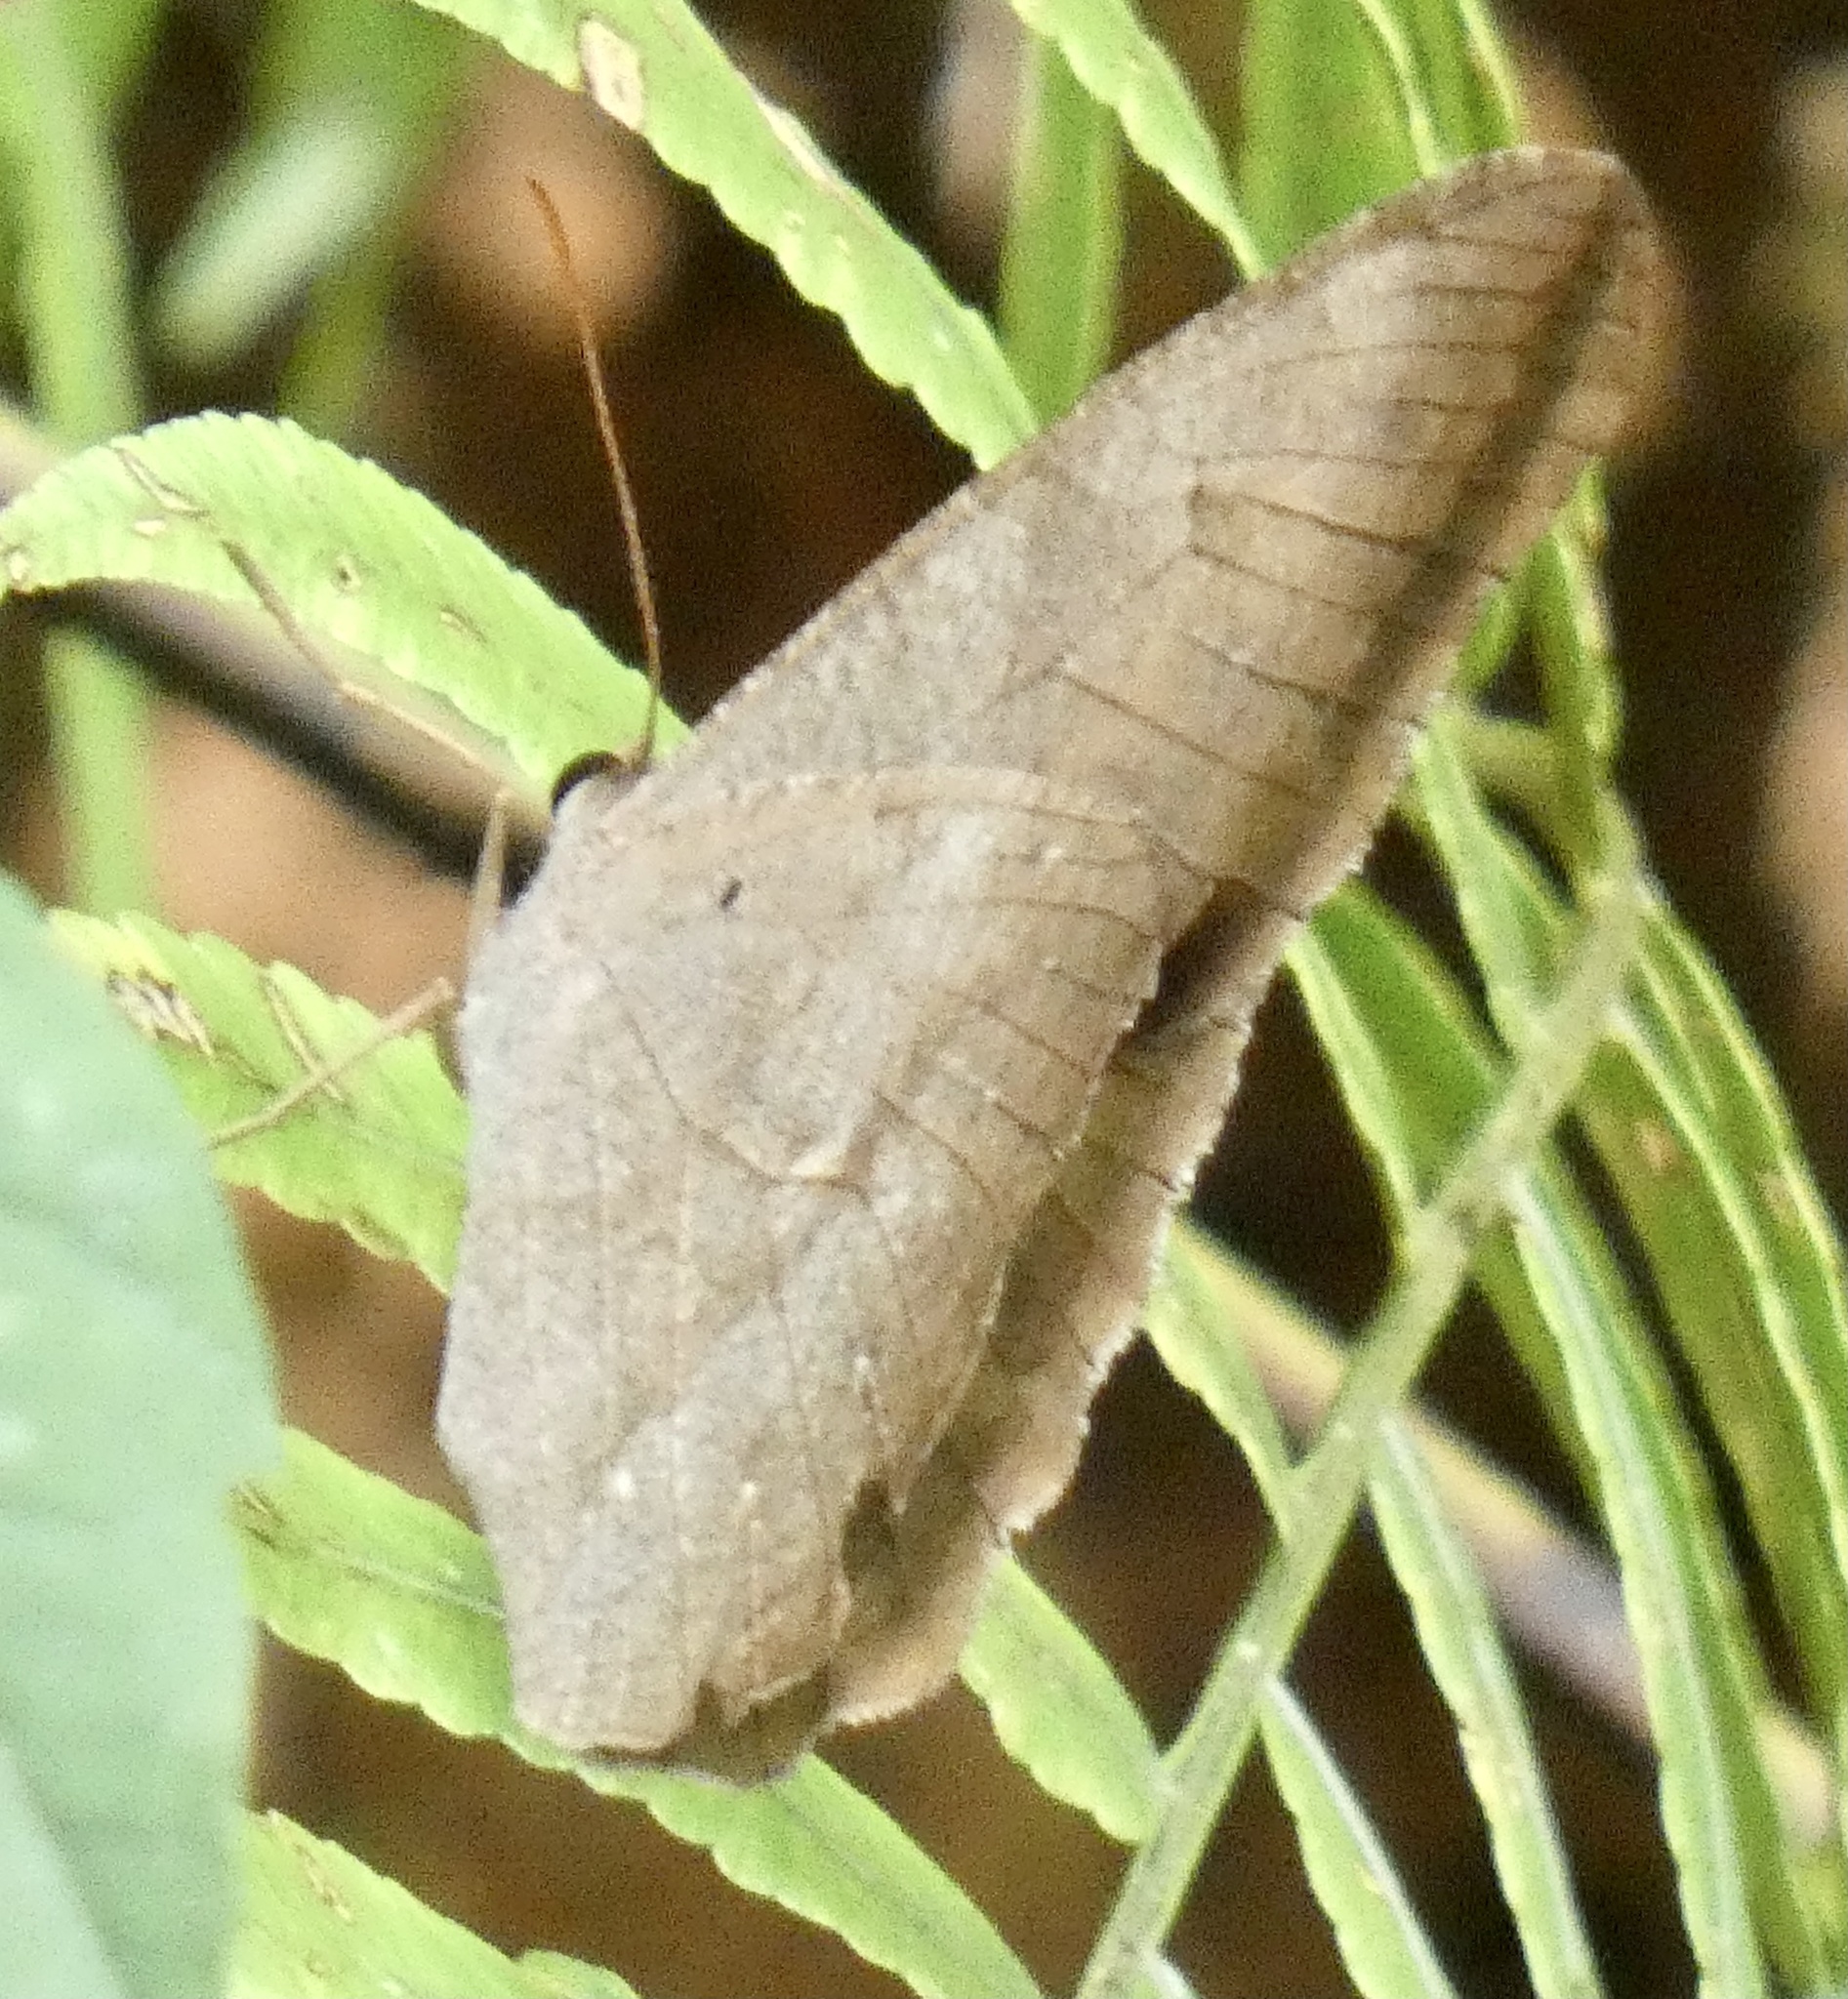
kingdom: Animalia
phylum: Arthropoda
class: Insecta
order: Lepidoptera
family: Nymphalidae
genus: Antirrhea
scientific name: Antirrhea archaea
